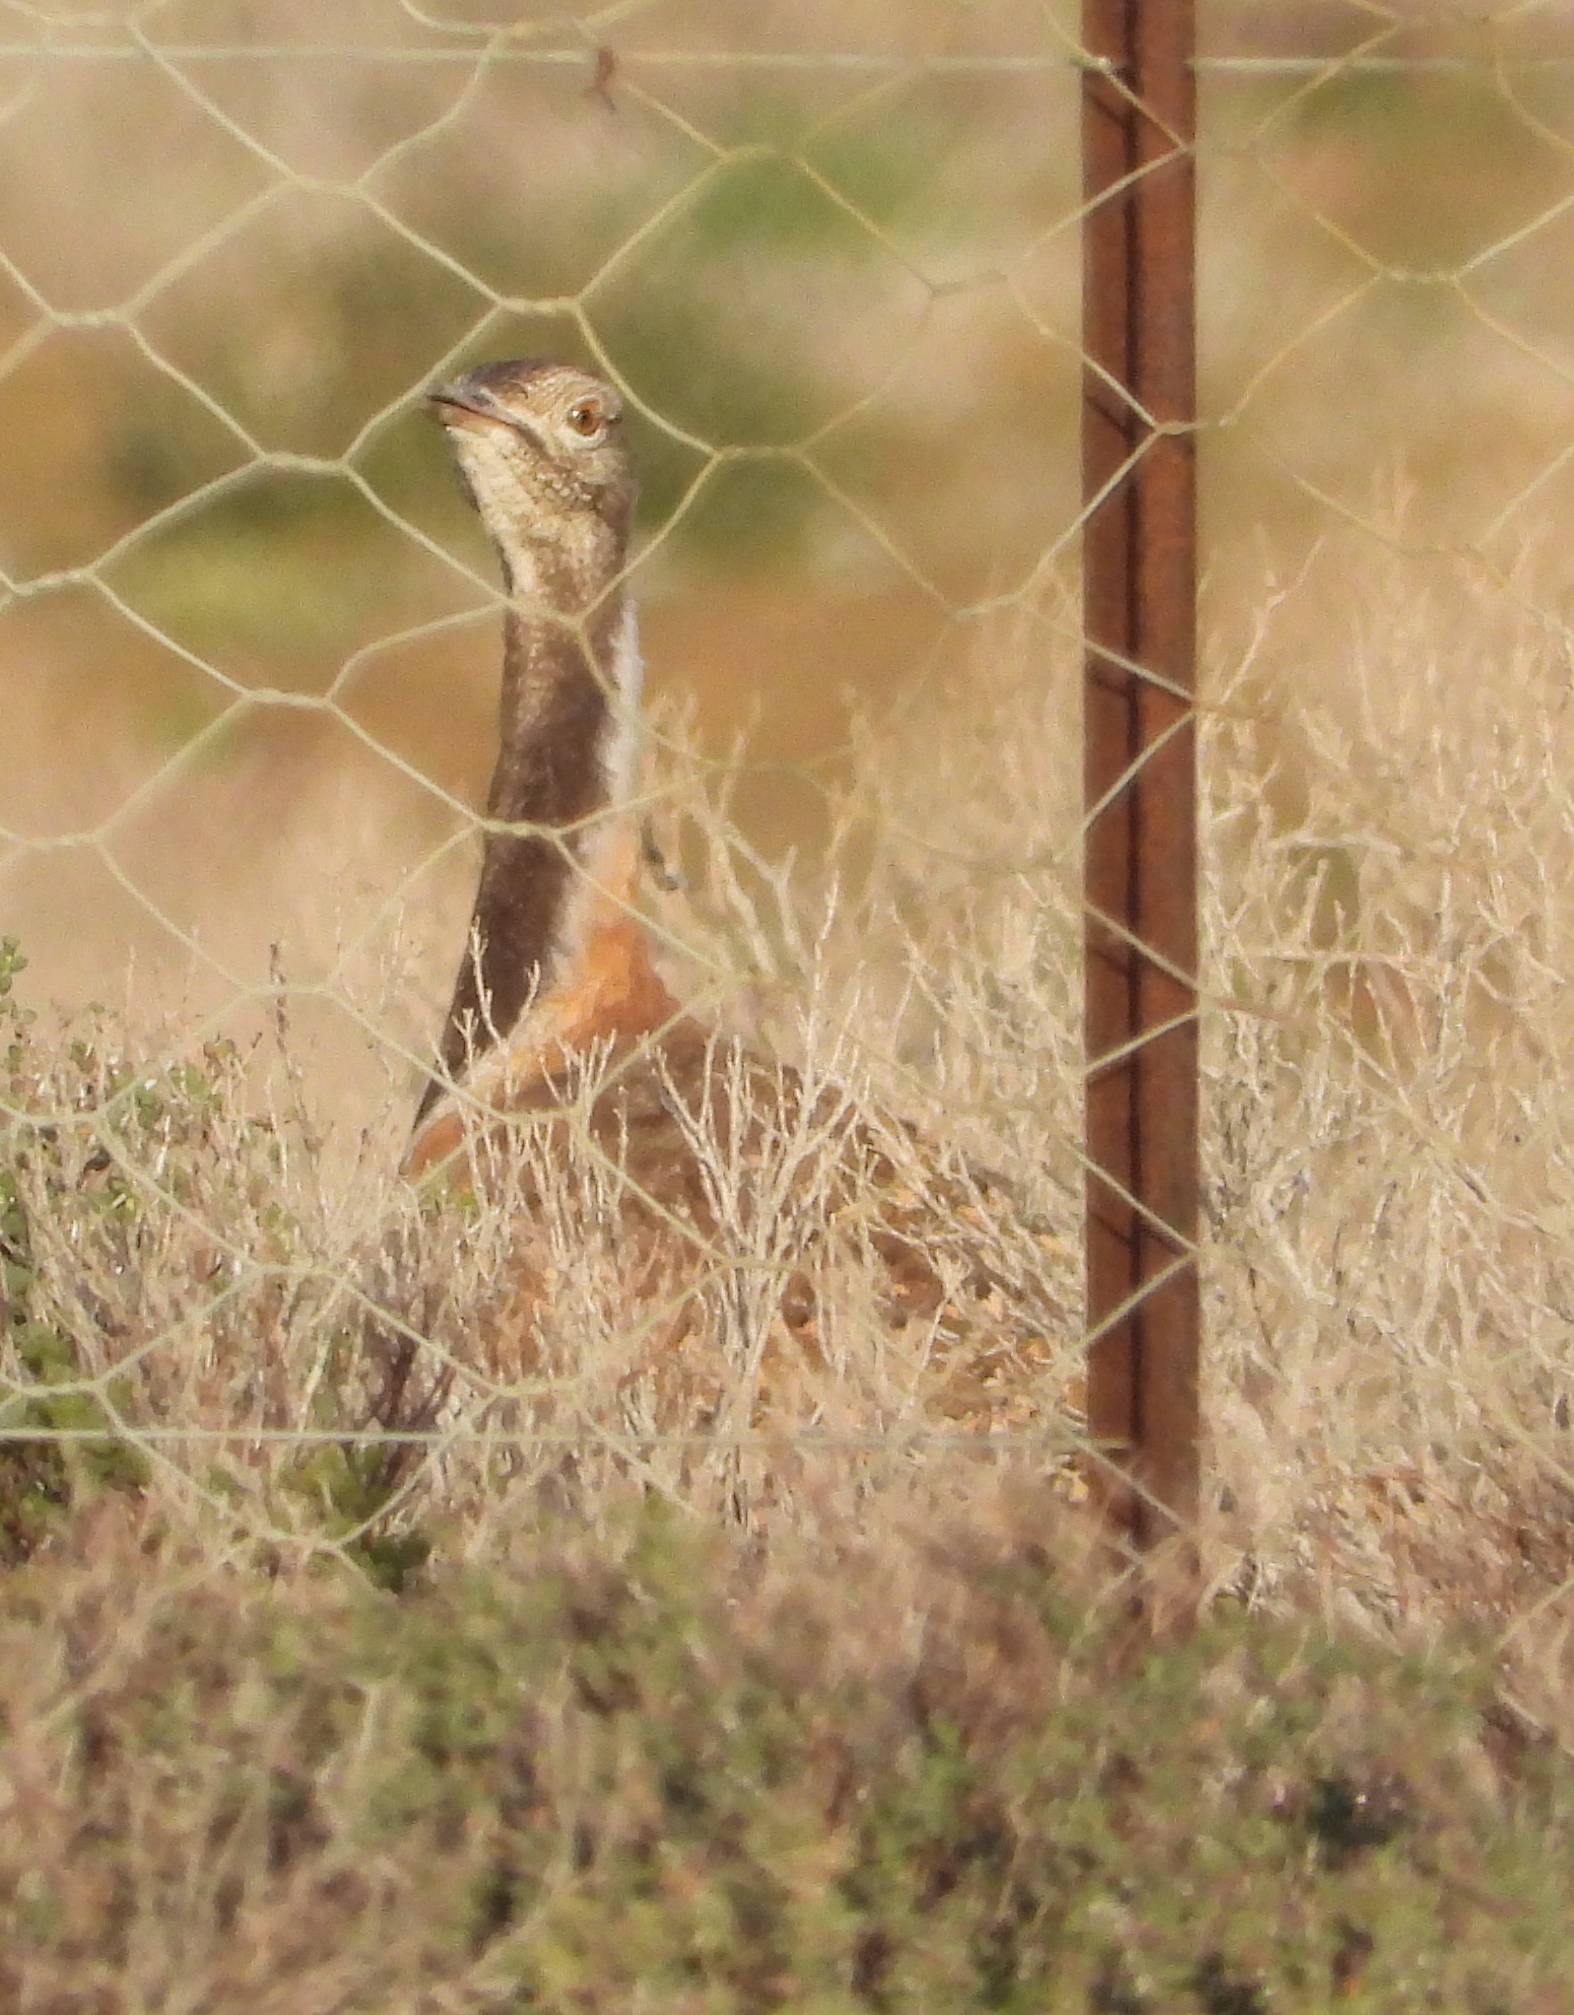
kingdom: Animalia
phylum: Chordata
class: Aves
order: Otidiformes
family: Otididae
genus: Neotis
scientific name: Neotis ludwigii
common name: Ludwig's bustard
